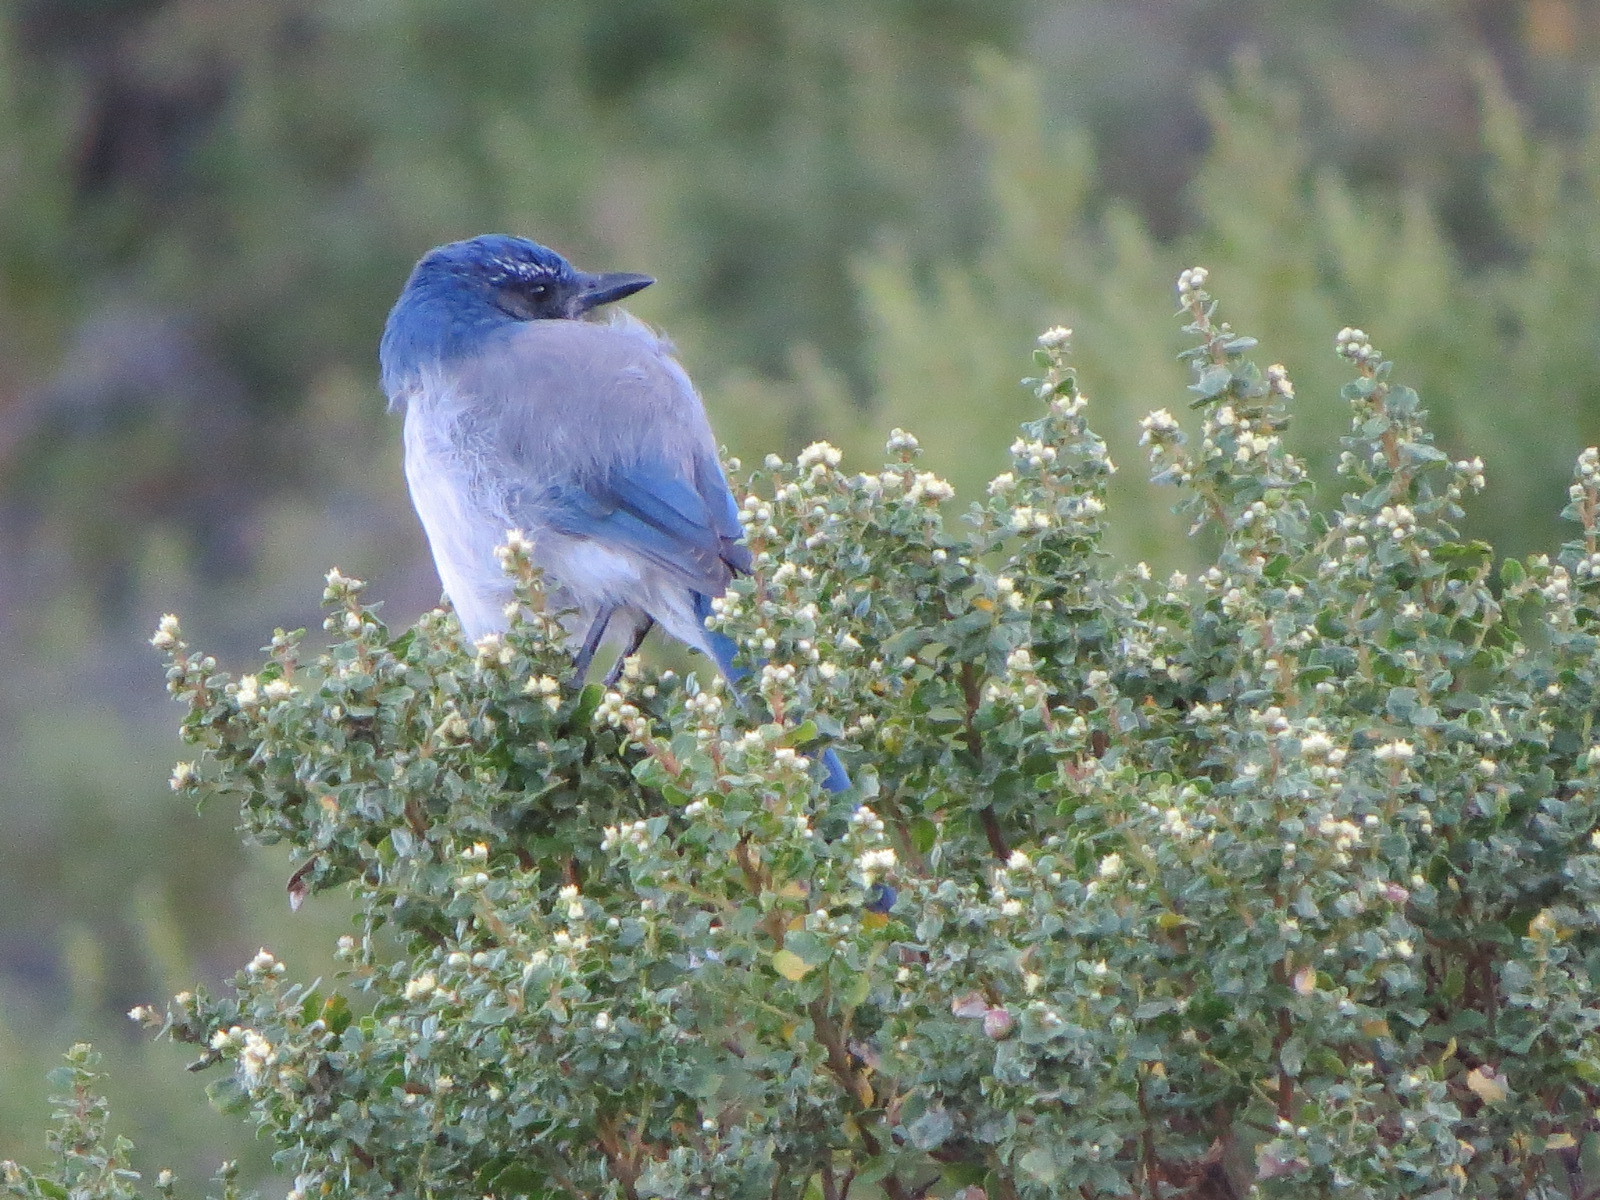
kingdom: Animalia
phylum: Chordata
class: Aves
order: Passeriformes
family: Corvidae
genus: Aphelocoma
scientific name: Aphelocoma californica
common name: California scrub-jay
